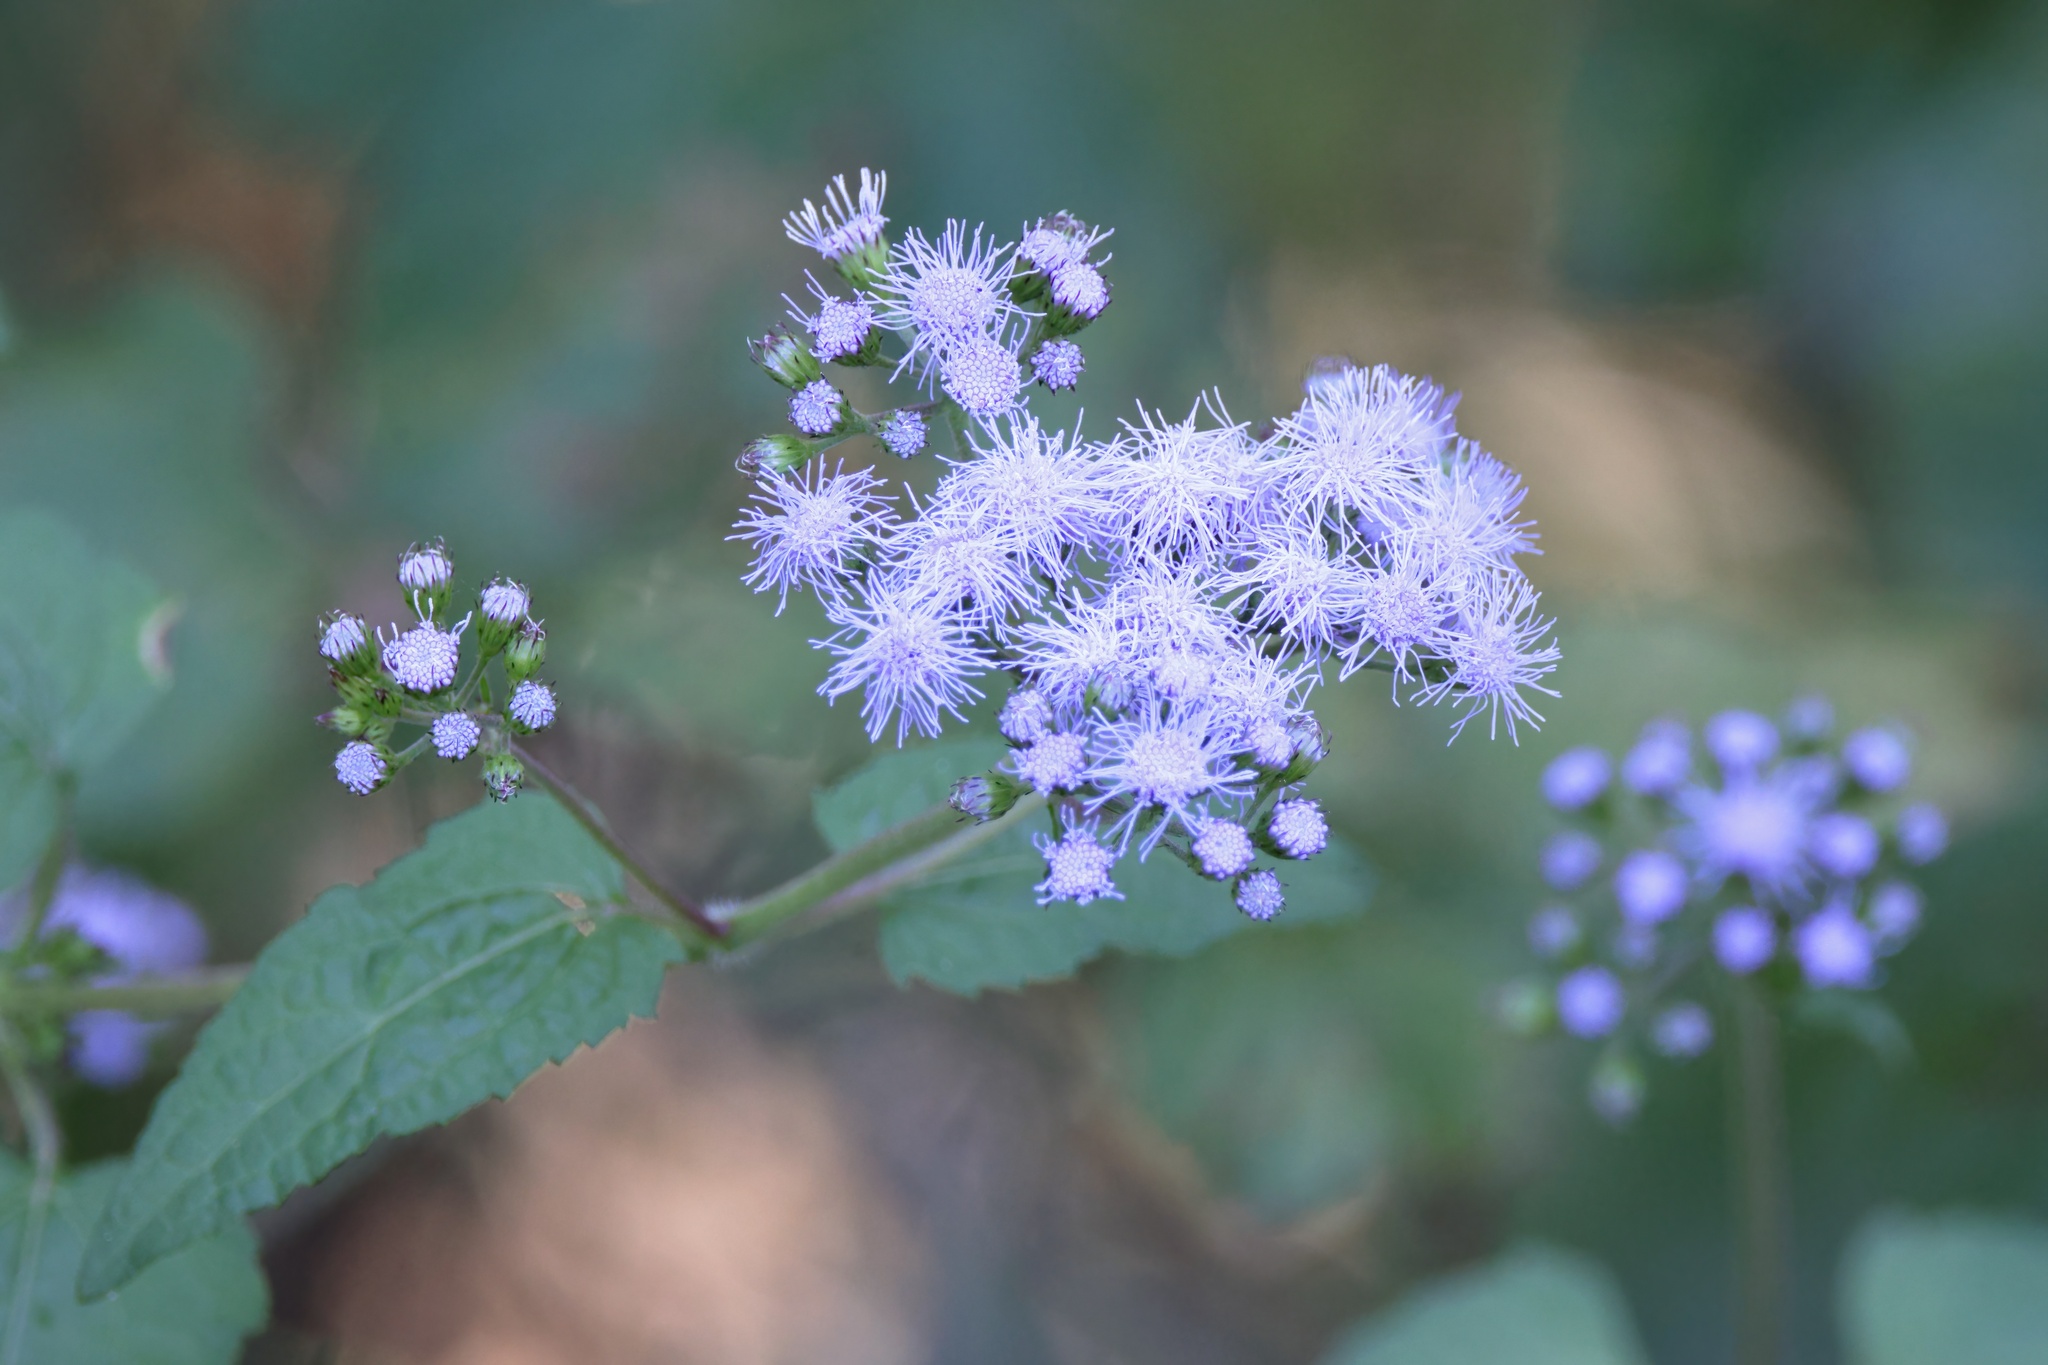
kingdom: Plantae
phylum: Tracheophyta
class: Magnoliopsida
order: Asterales
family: Asteraceae
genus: Conoclinium
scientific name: Conoclinium coelestinum
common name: Blue mistflower
